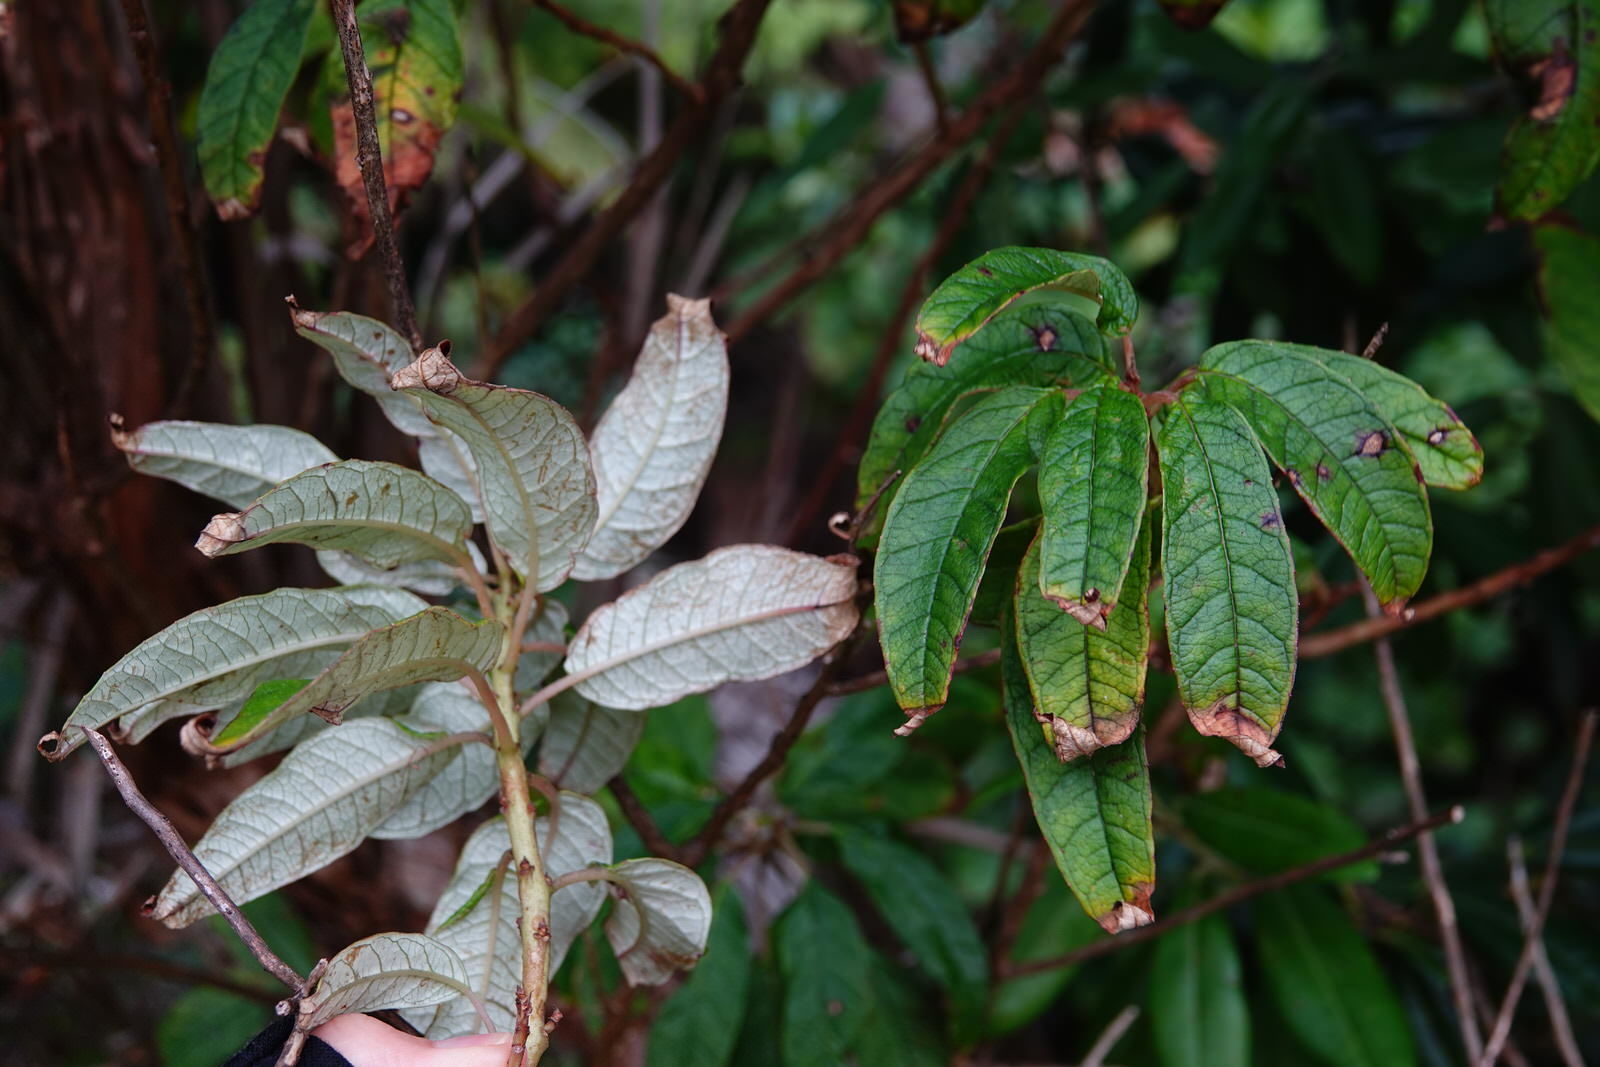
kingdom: Plantae
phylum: Tracheophyta
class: Magnoliopsida
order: Myrtales
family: Onagraceae
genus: Fuchsia
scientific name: Fuchsia excorticata
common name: Tree fuchsia
